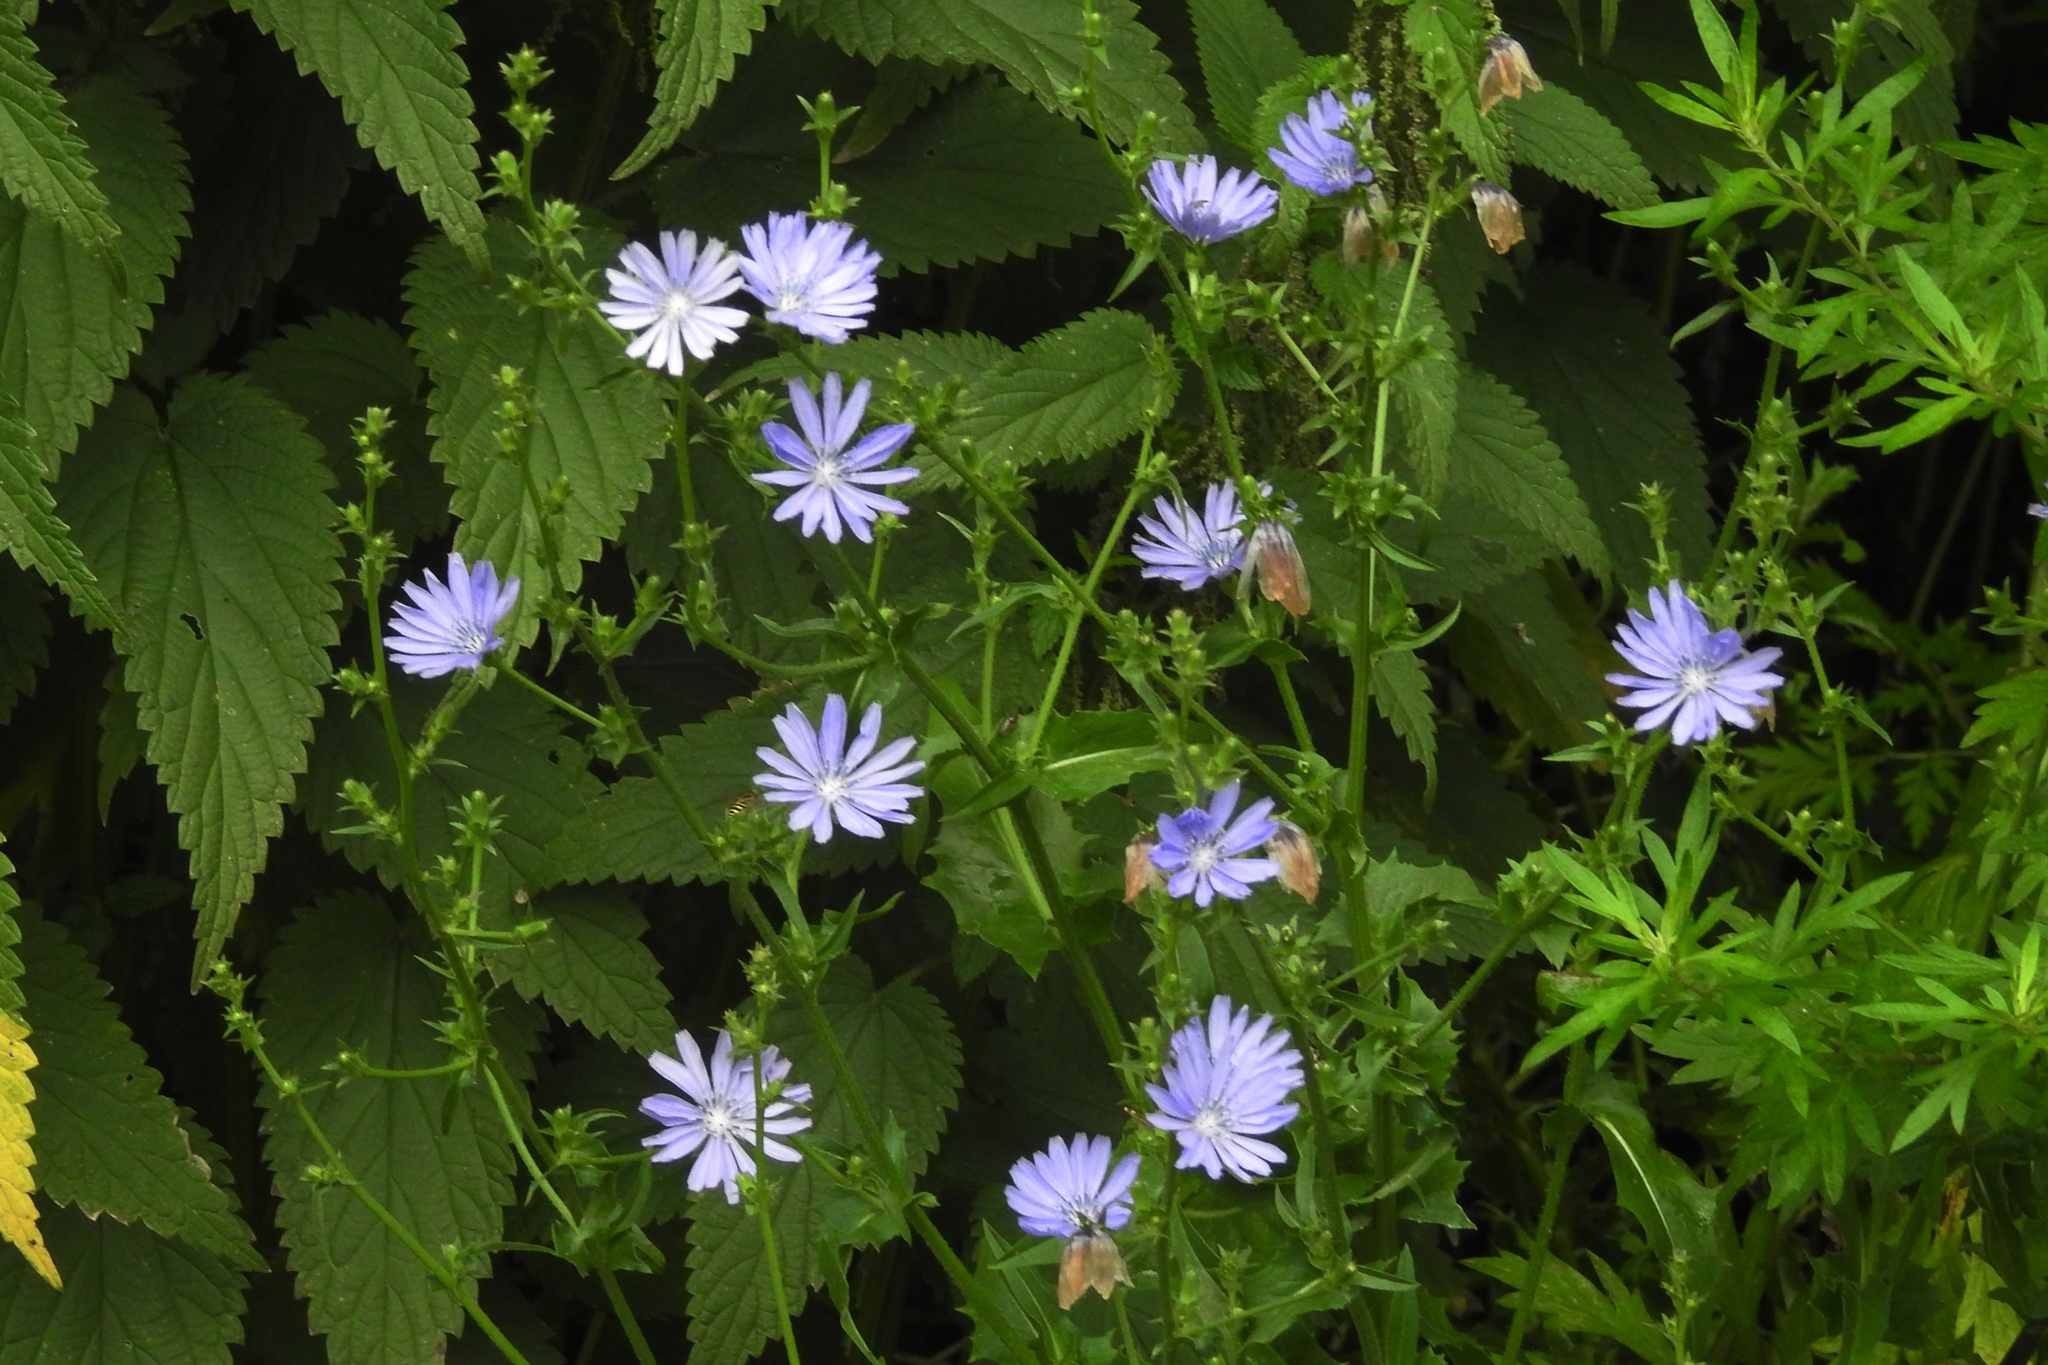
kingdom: Plantae
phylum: Tracheophyta
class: Magnoliopsida
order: Asterales
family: Asteraceae
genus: Cichorium
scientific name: Cichorium intybus
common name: Chicory
